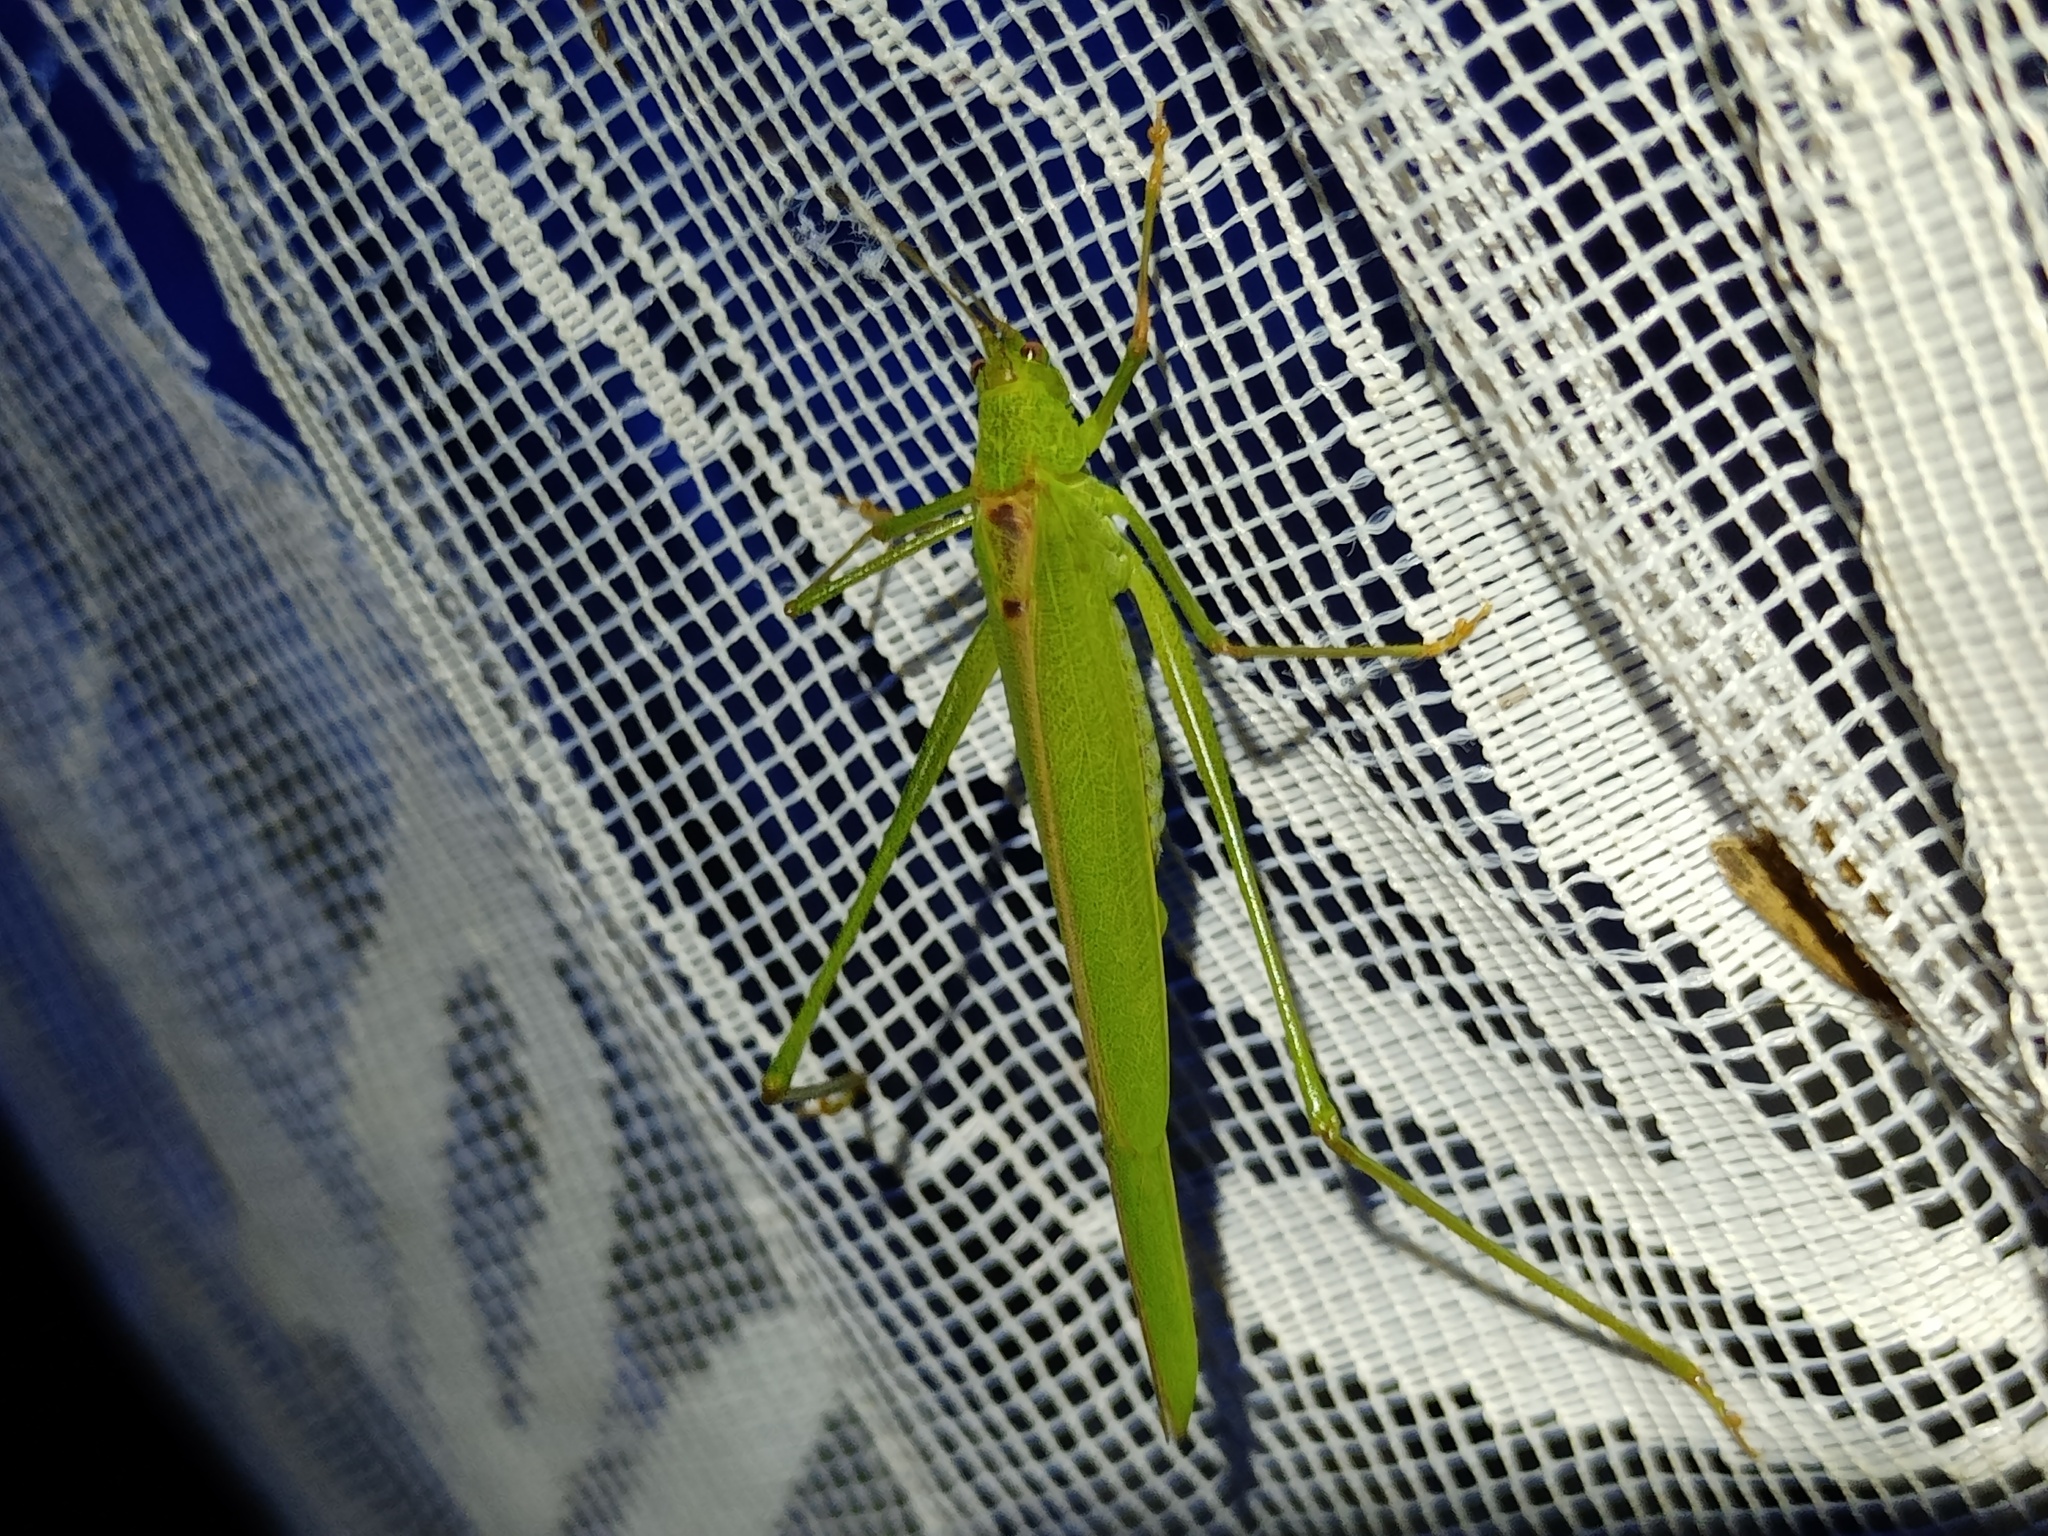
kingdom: Animalia
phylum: Arthropoda
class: Insecta
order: Orthoptera
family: Tettigoniidae
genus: Phaneroptera
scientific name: Phaneroptera falcata
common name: Sickle-bearing bush-cricket
